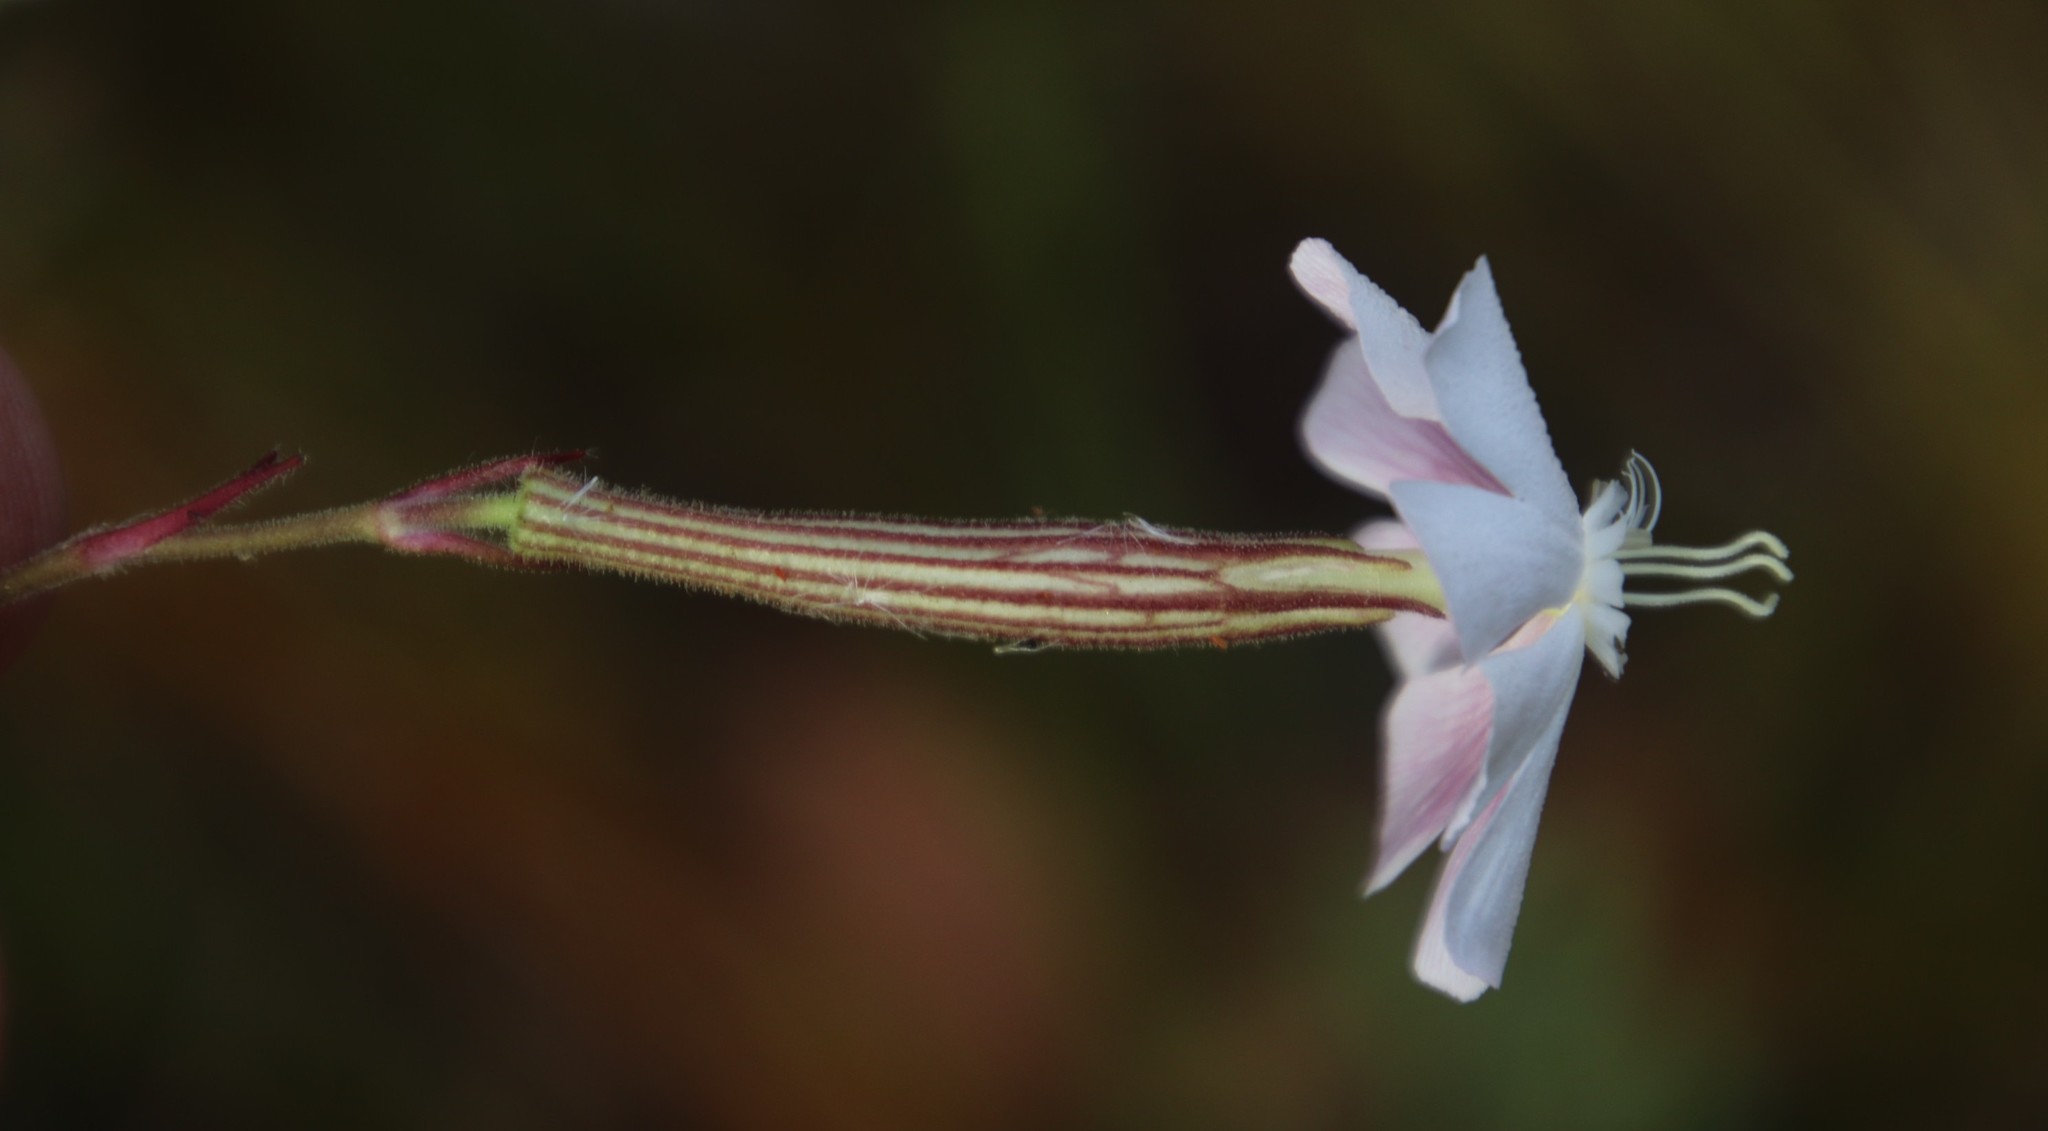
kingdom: Plantae
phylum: Tracheophyta
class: Magnoliopsida
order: Caryophyllales
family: Caryophyllaceae
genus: Silene
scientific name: Silene undulata
